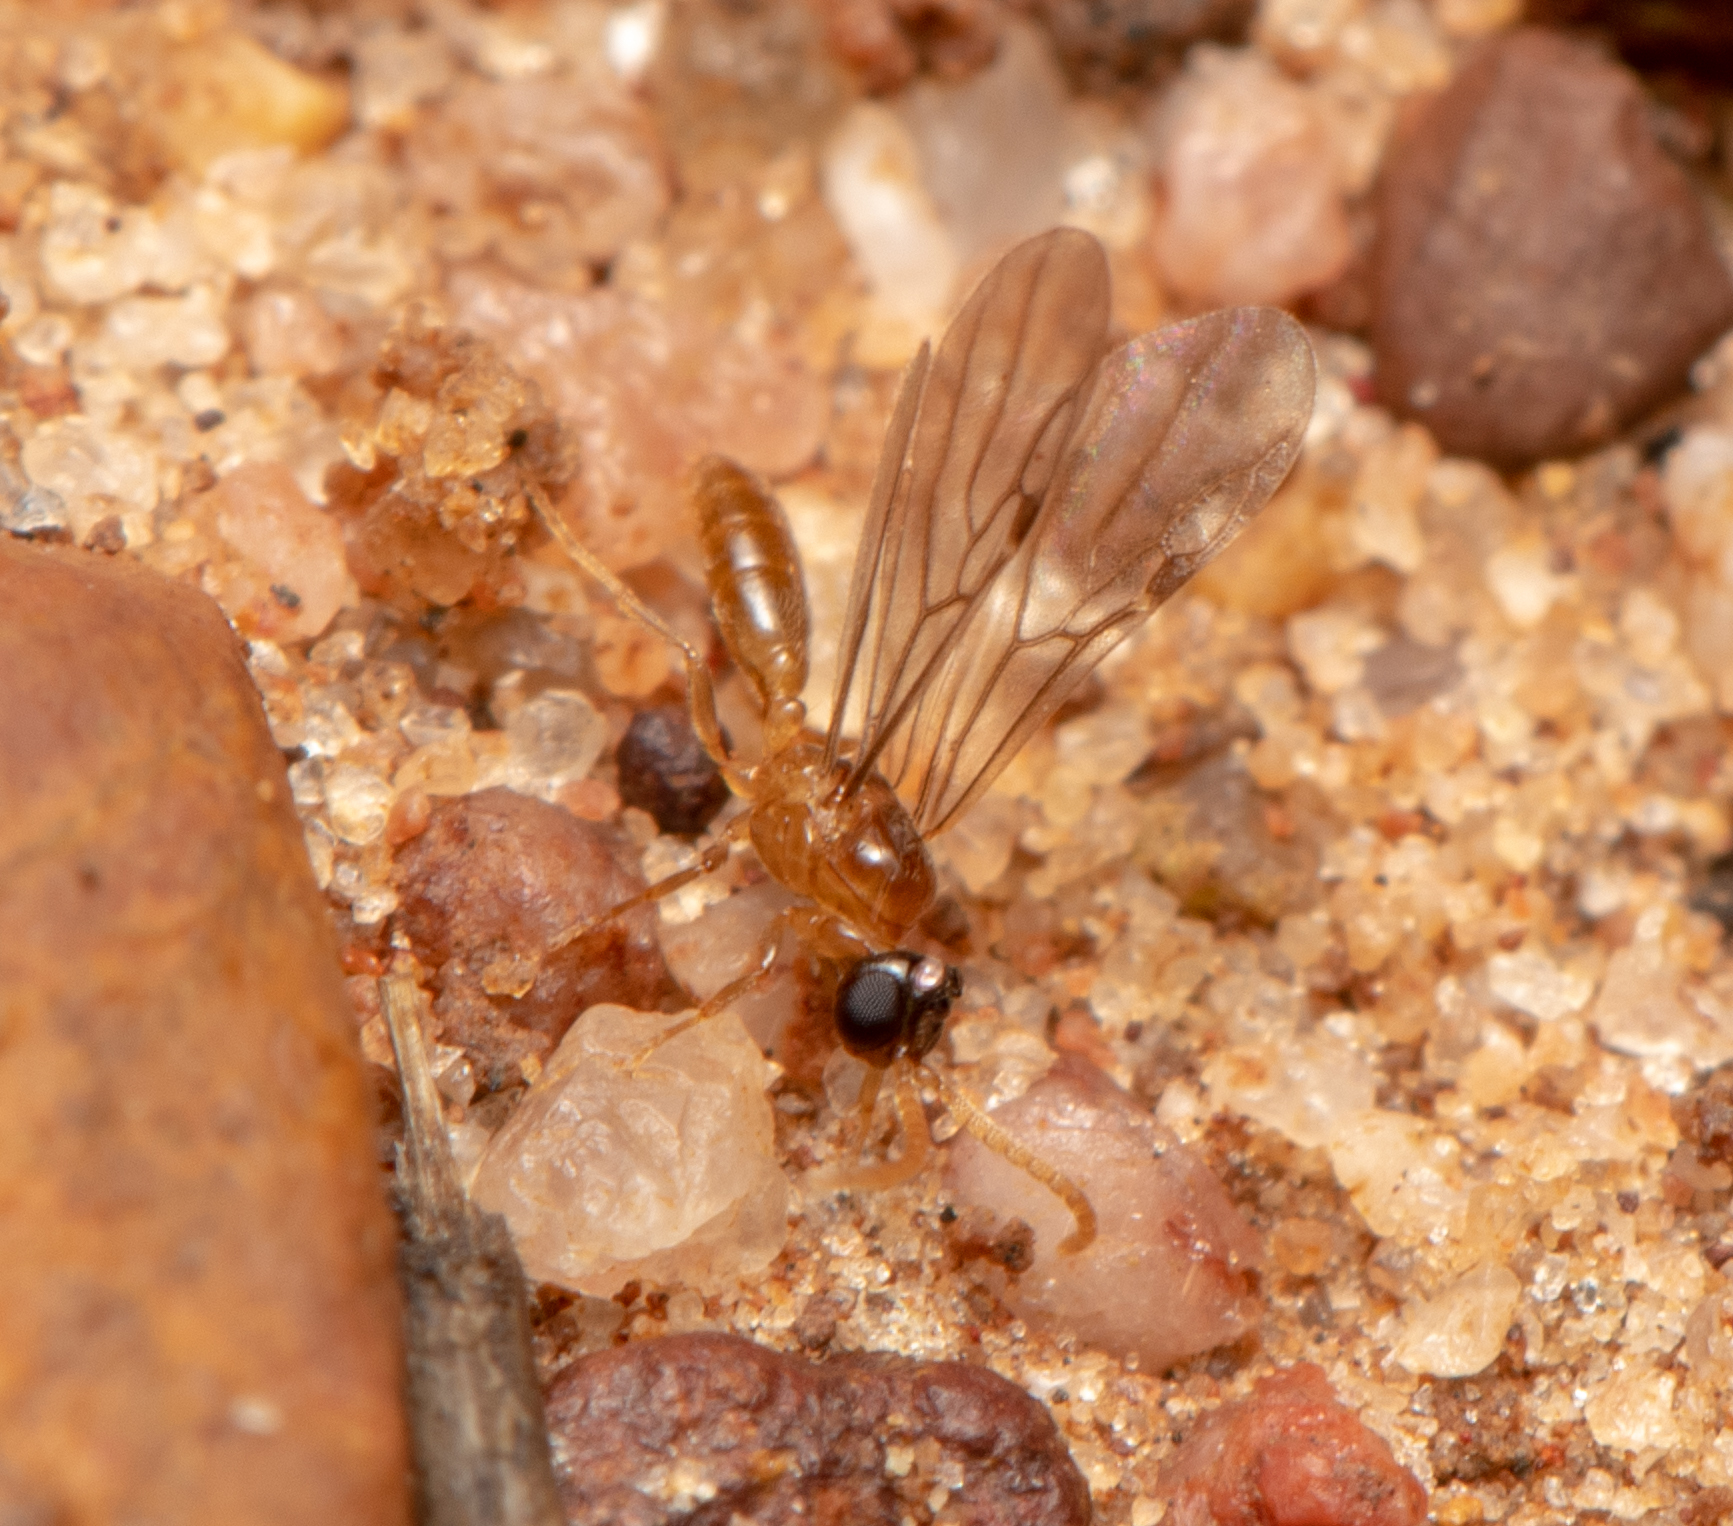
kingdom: Animalia
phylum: Arthropoda
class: Insecta
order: Hymenoptera
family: Formicidae
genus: Rhopalomastix
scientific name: Rhopalomastix
